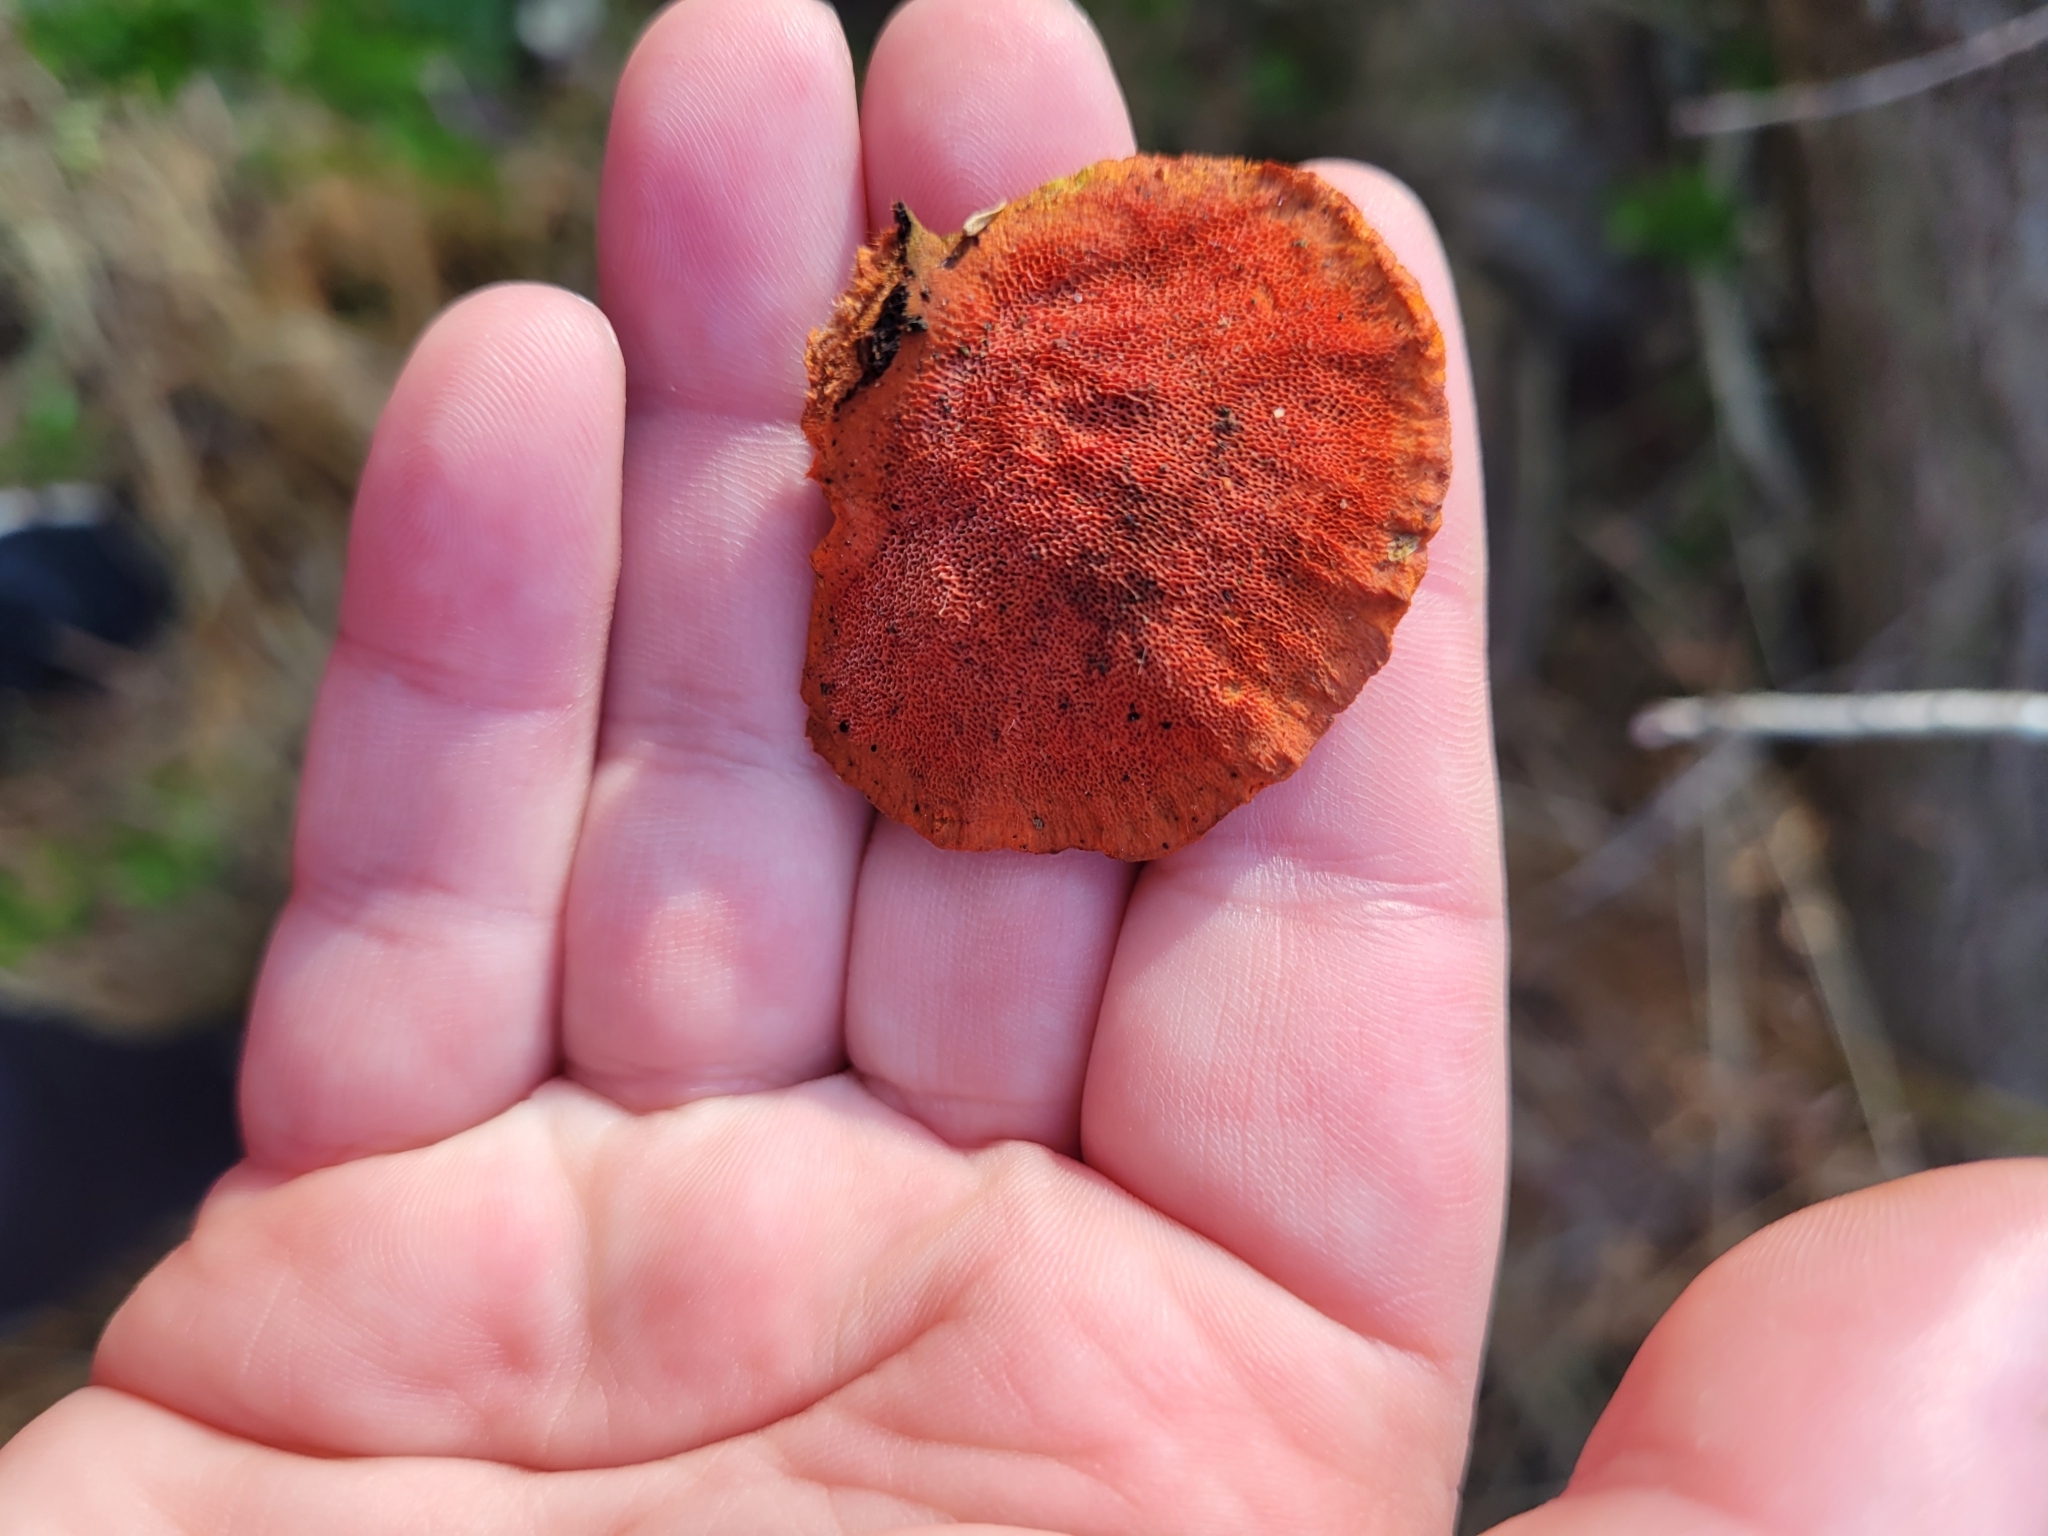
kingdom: Fungi
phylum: Basidiomycota
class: Agaricomycetes
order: Polyporales
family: Polyporaceae
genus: Trametes
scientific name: Trametes cinnabarina
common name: Northern cinnabar polypore
